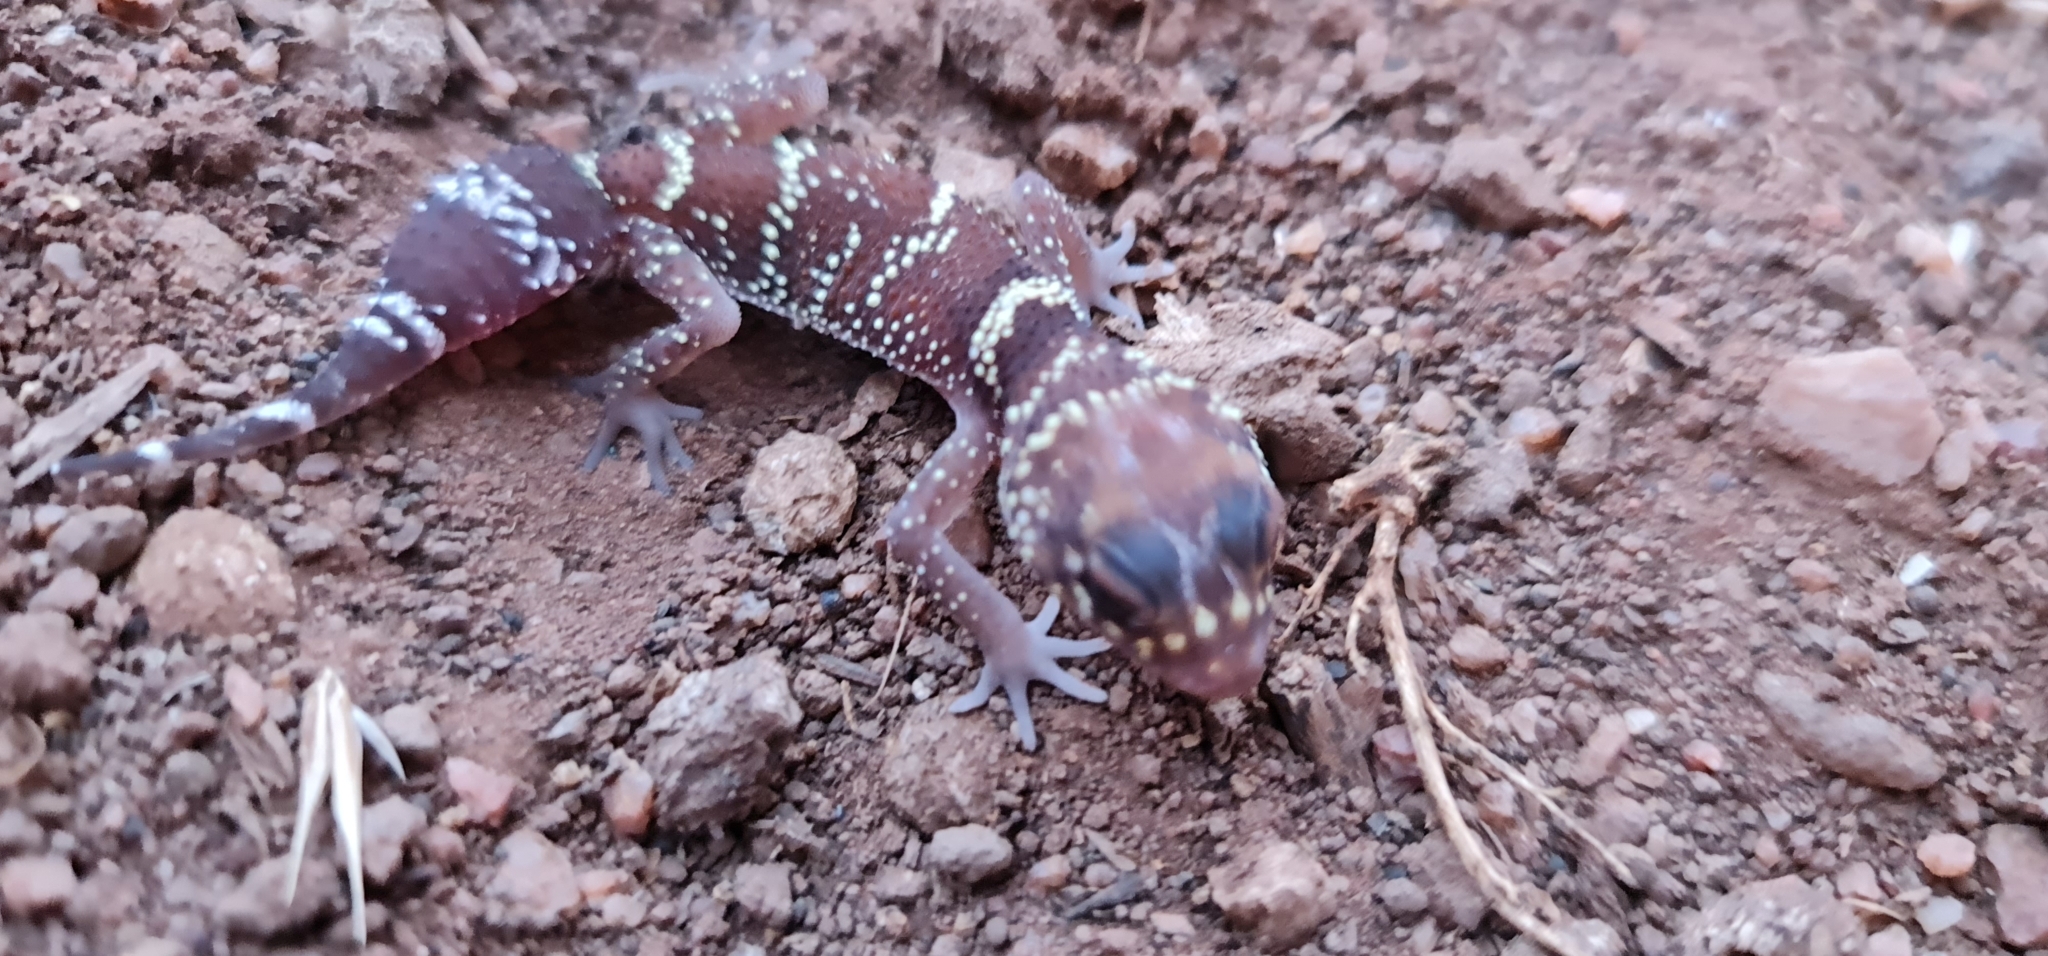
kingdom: Animalia
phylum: Chordata
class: Squamata
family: Carphodactylidae
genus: Underwoodisaurus
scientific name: Underwoodisaurus milii
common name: Barking gecko
